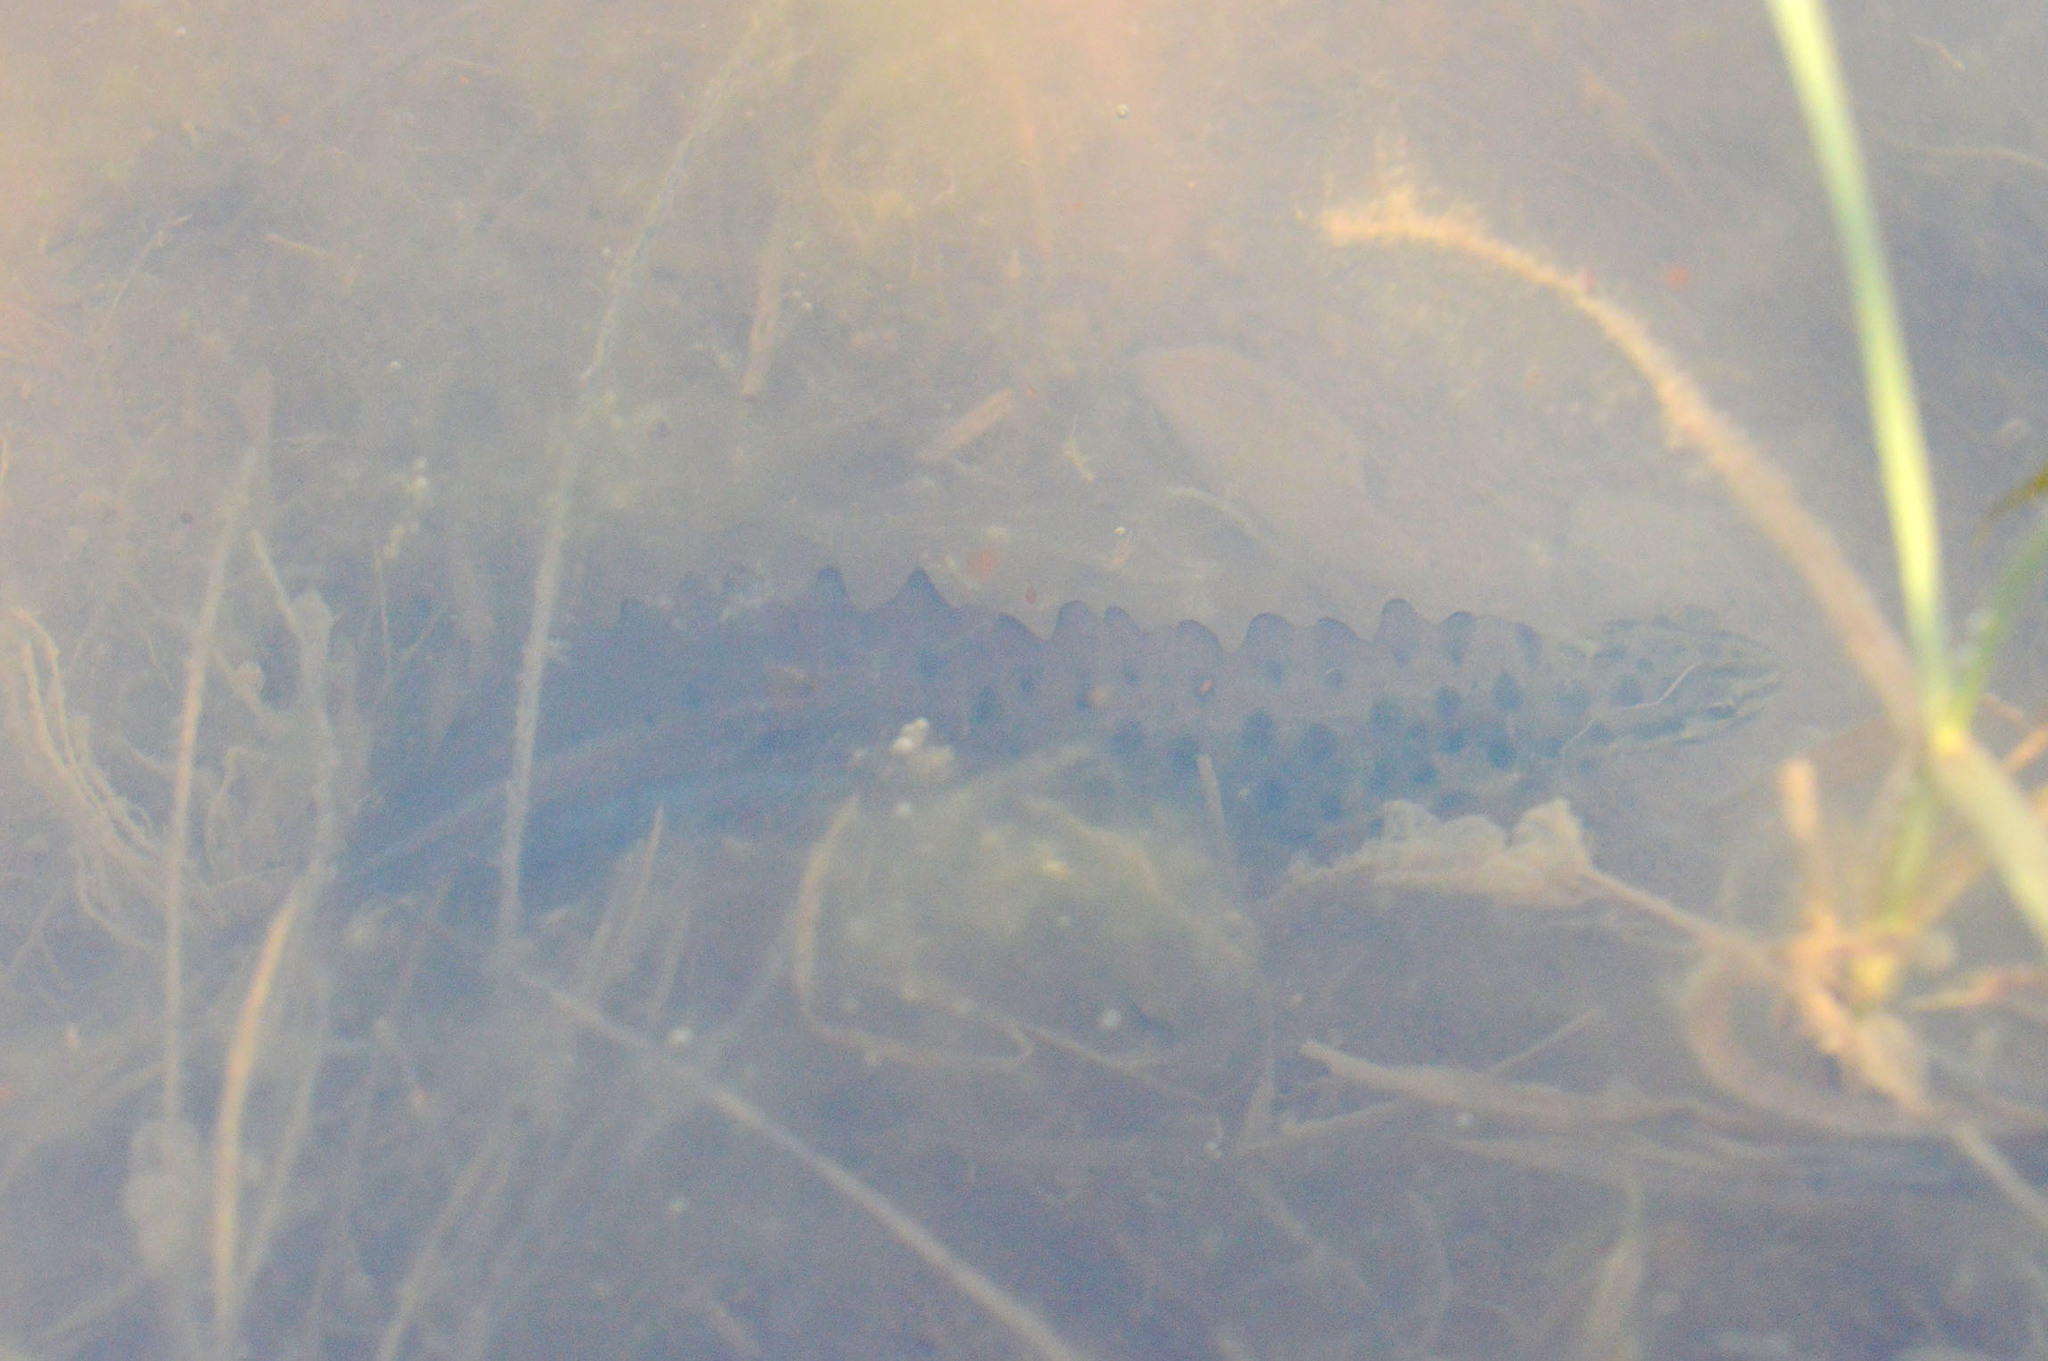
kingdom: Animalia
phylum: Chordata
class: Amphibia
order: Caudata
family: Salamandridae
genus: Lissotriton
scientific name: Lissotriton vulgaris
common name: Smooth newt
